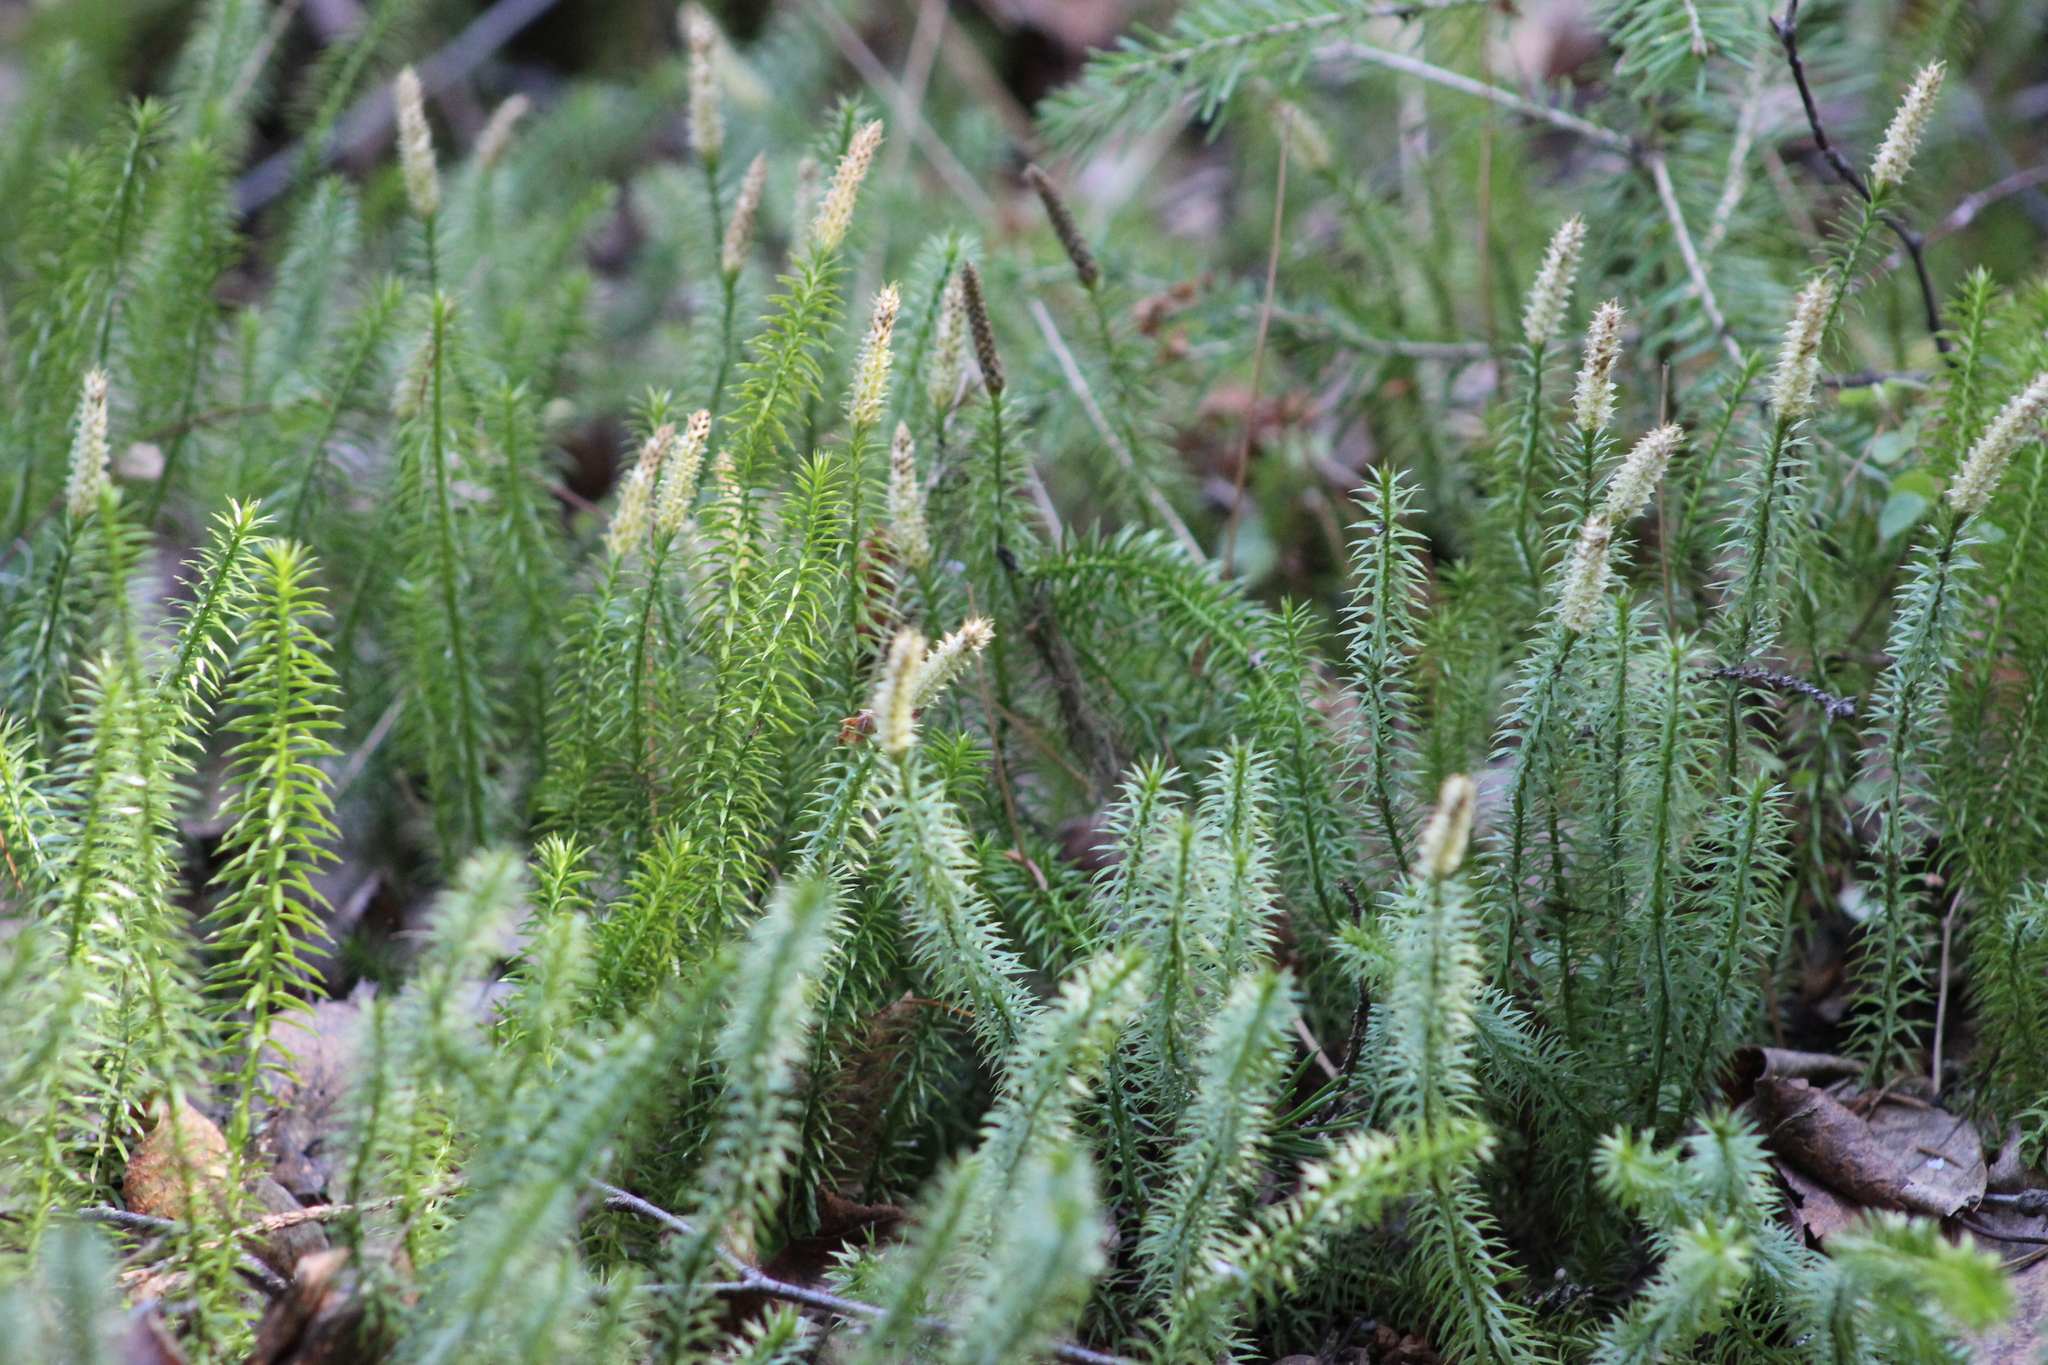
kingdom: Plantae
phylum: Tracheophyta
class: Lycopodiopsida
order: Lycopodiales
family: Lycopodiaceae
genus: Spinulum
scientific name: Spinulum annotinum
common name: Interrupted club-moss
